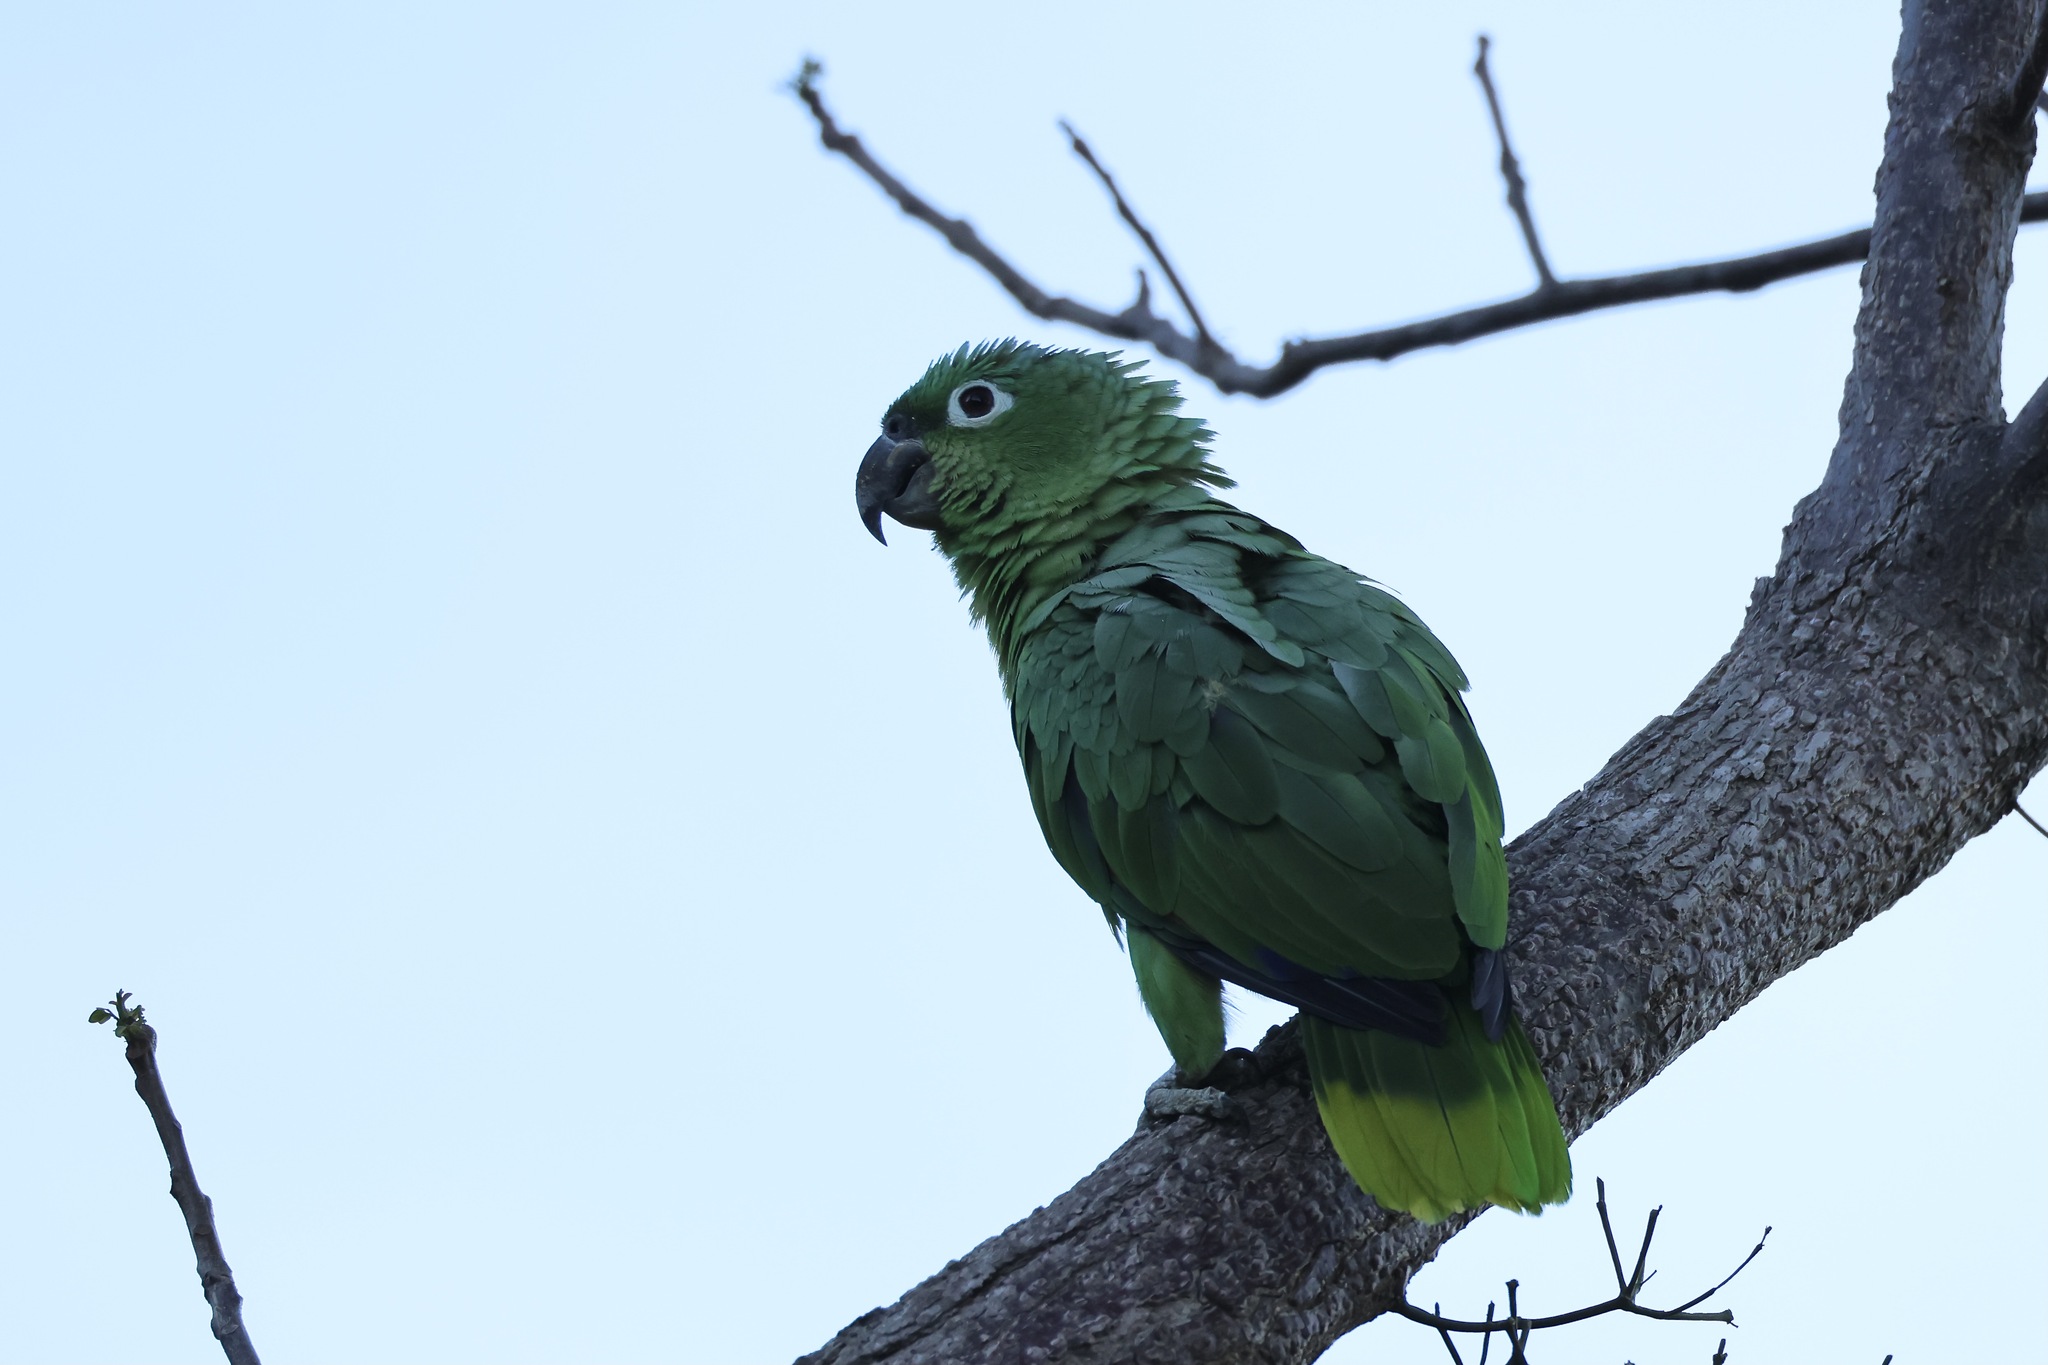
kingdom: Animalia
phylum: Chordata
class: Aves
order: Psittaciformes
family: Psittacidae
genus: Amazona
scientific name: Amazona farinosa
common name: Mealy parrot
